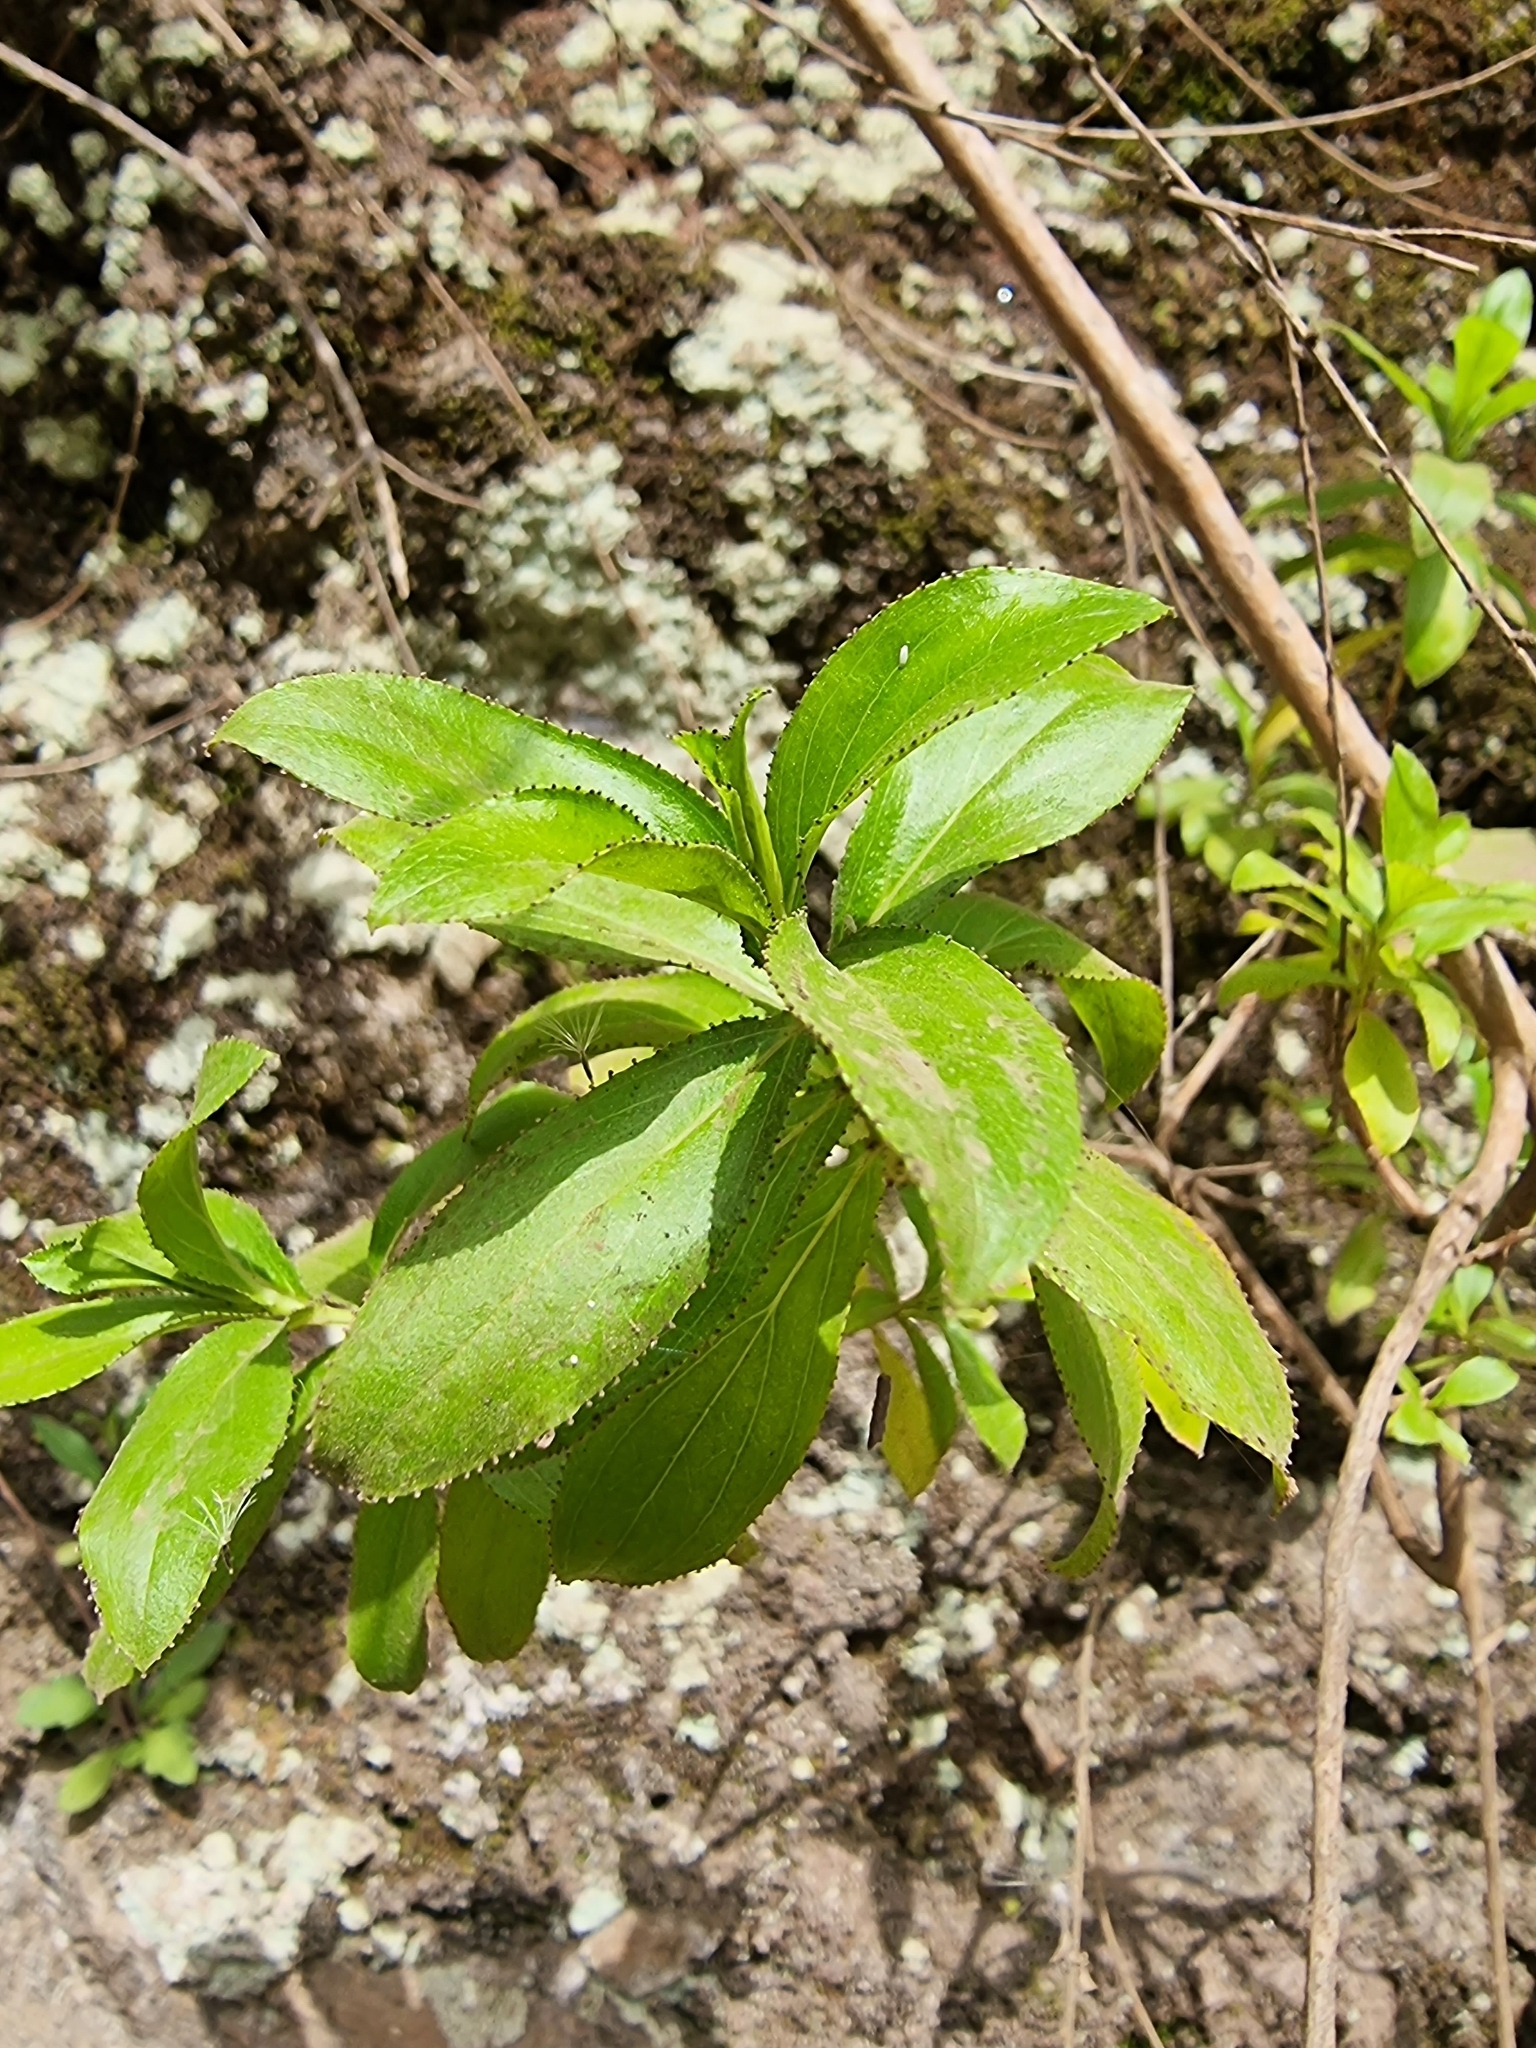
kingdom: Plantae
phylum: Tracheophyta
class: Magnoliopsida
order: Malpighiales
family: Hypericaceae
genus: Hypericum
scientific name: Hypericum glandulosum
